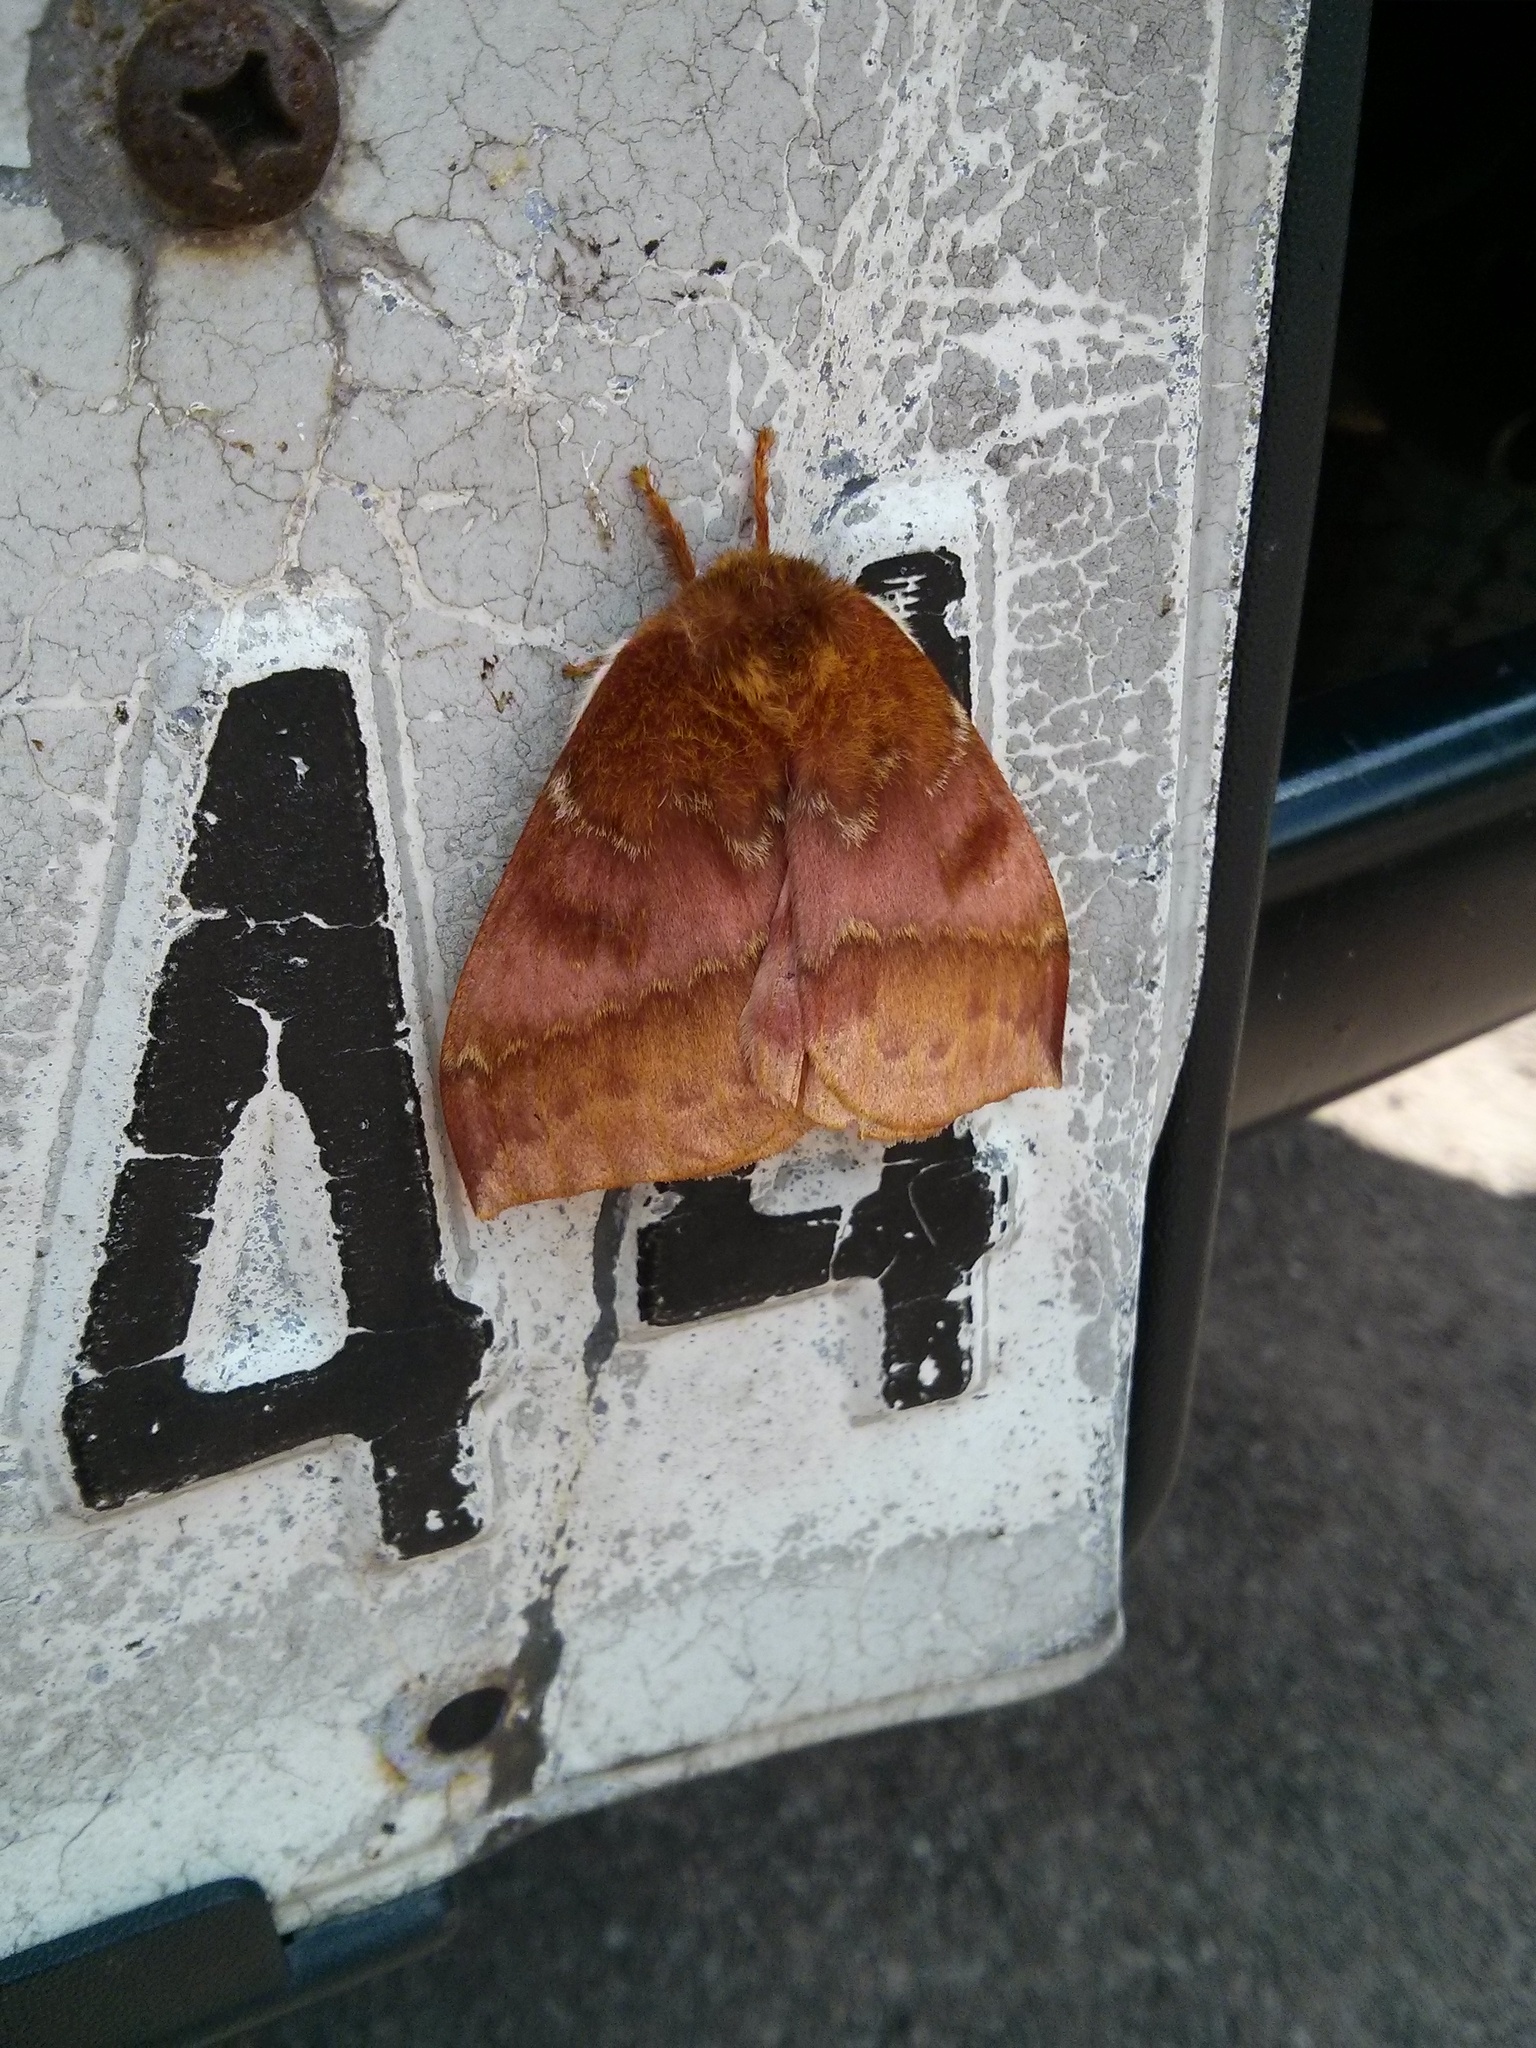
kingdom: Animalia
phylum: Arthropoda
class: Insecta
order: Lepidoptera
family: Saturniidae
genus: Automeris
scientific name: Automeris io
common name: Io moth
